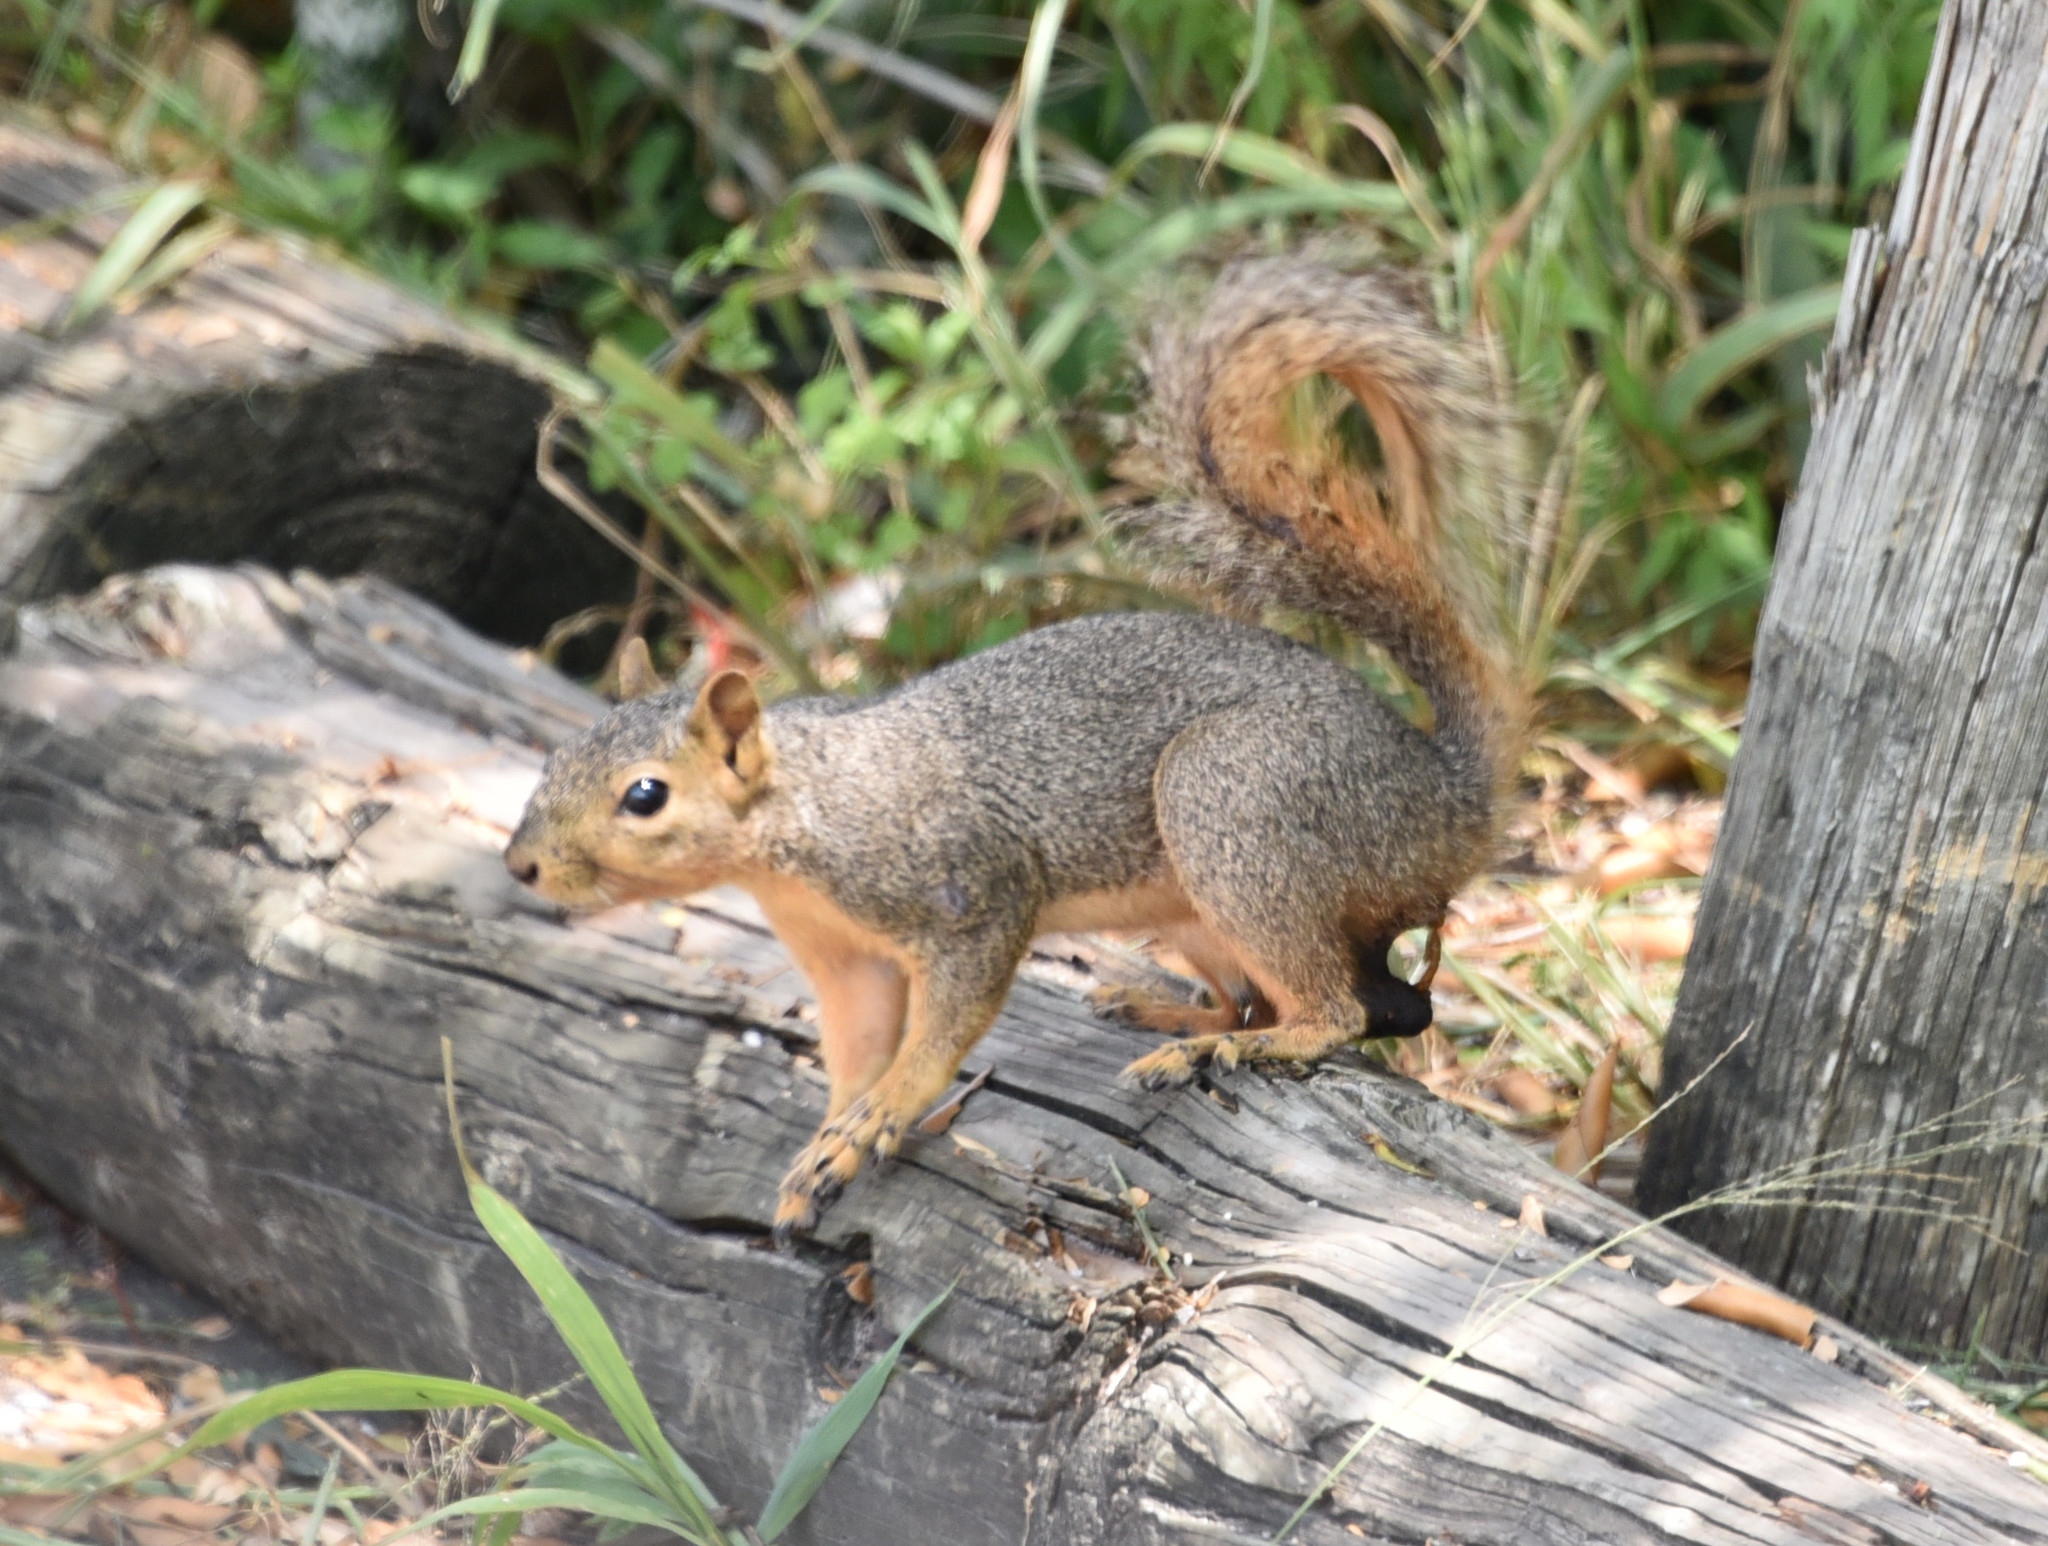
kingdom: Animalia
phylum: Chordata
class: Mammalia
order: Rodentia
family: Sciuridae
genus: Sciurus
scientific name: Sciurus niger
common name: Fox squirrel
